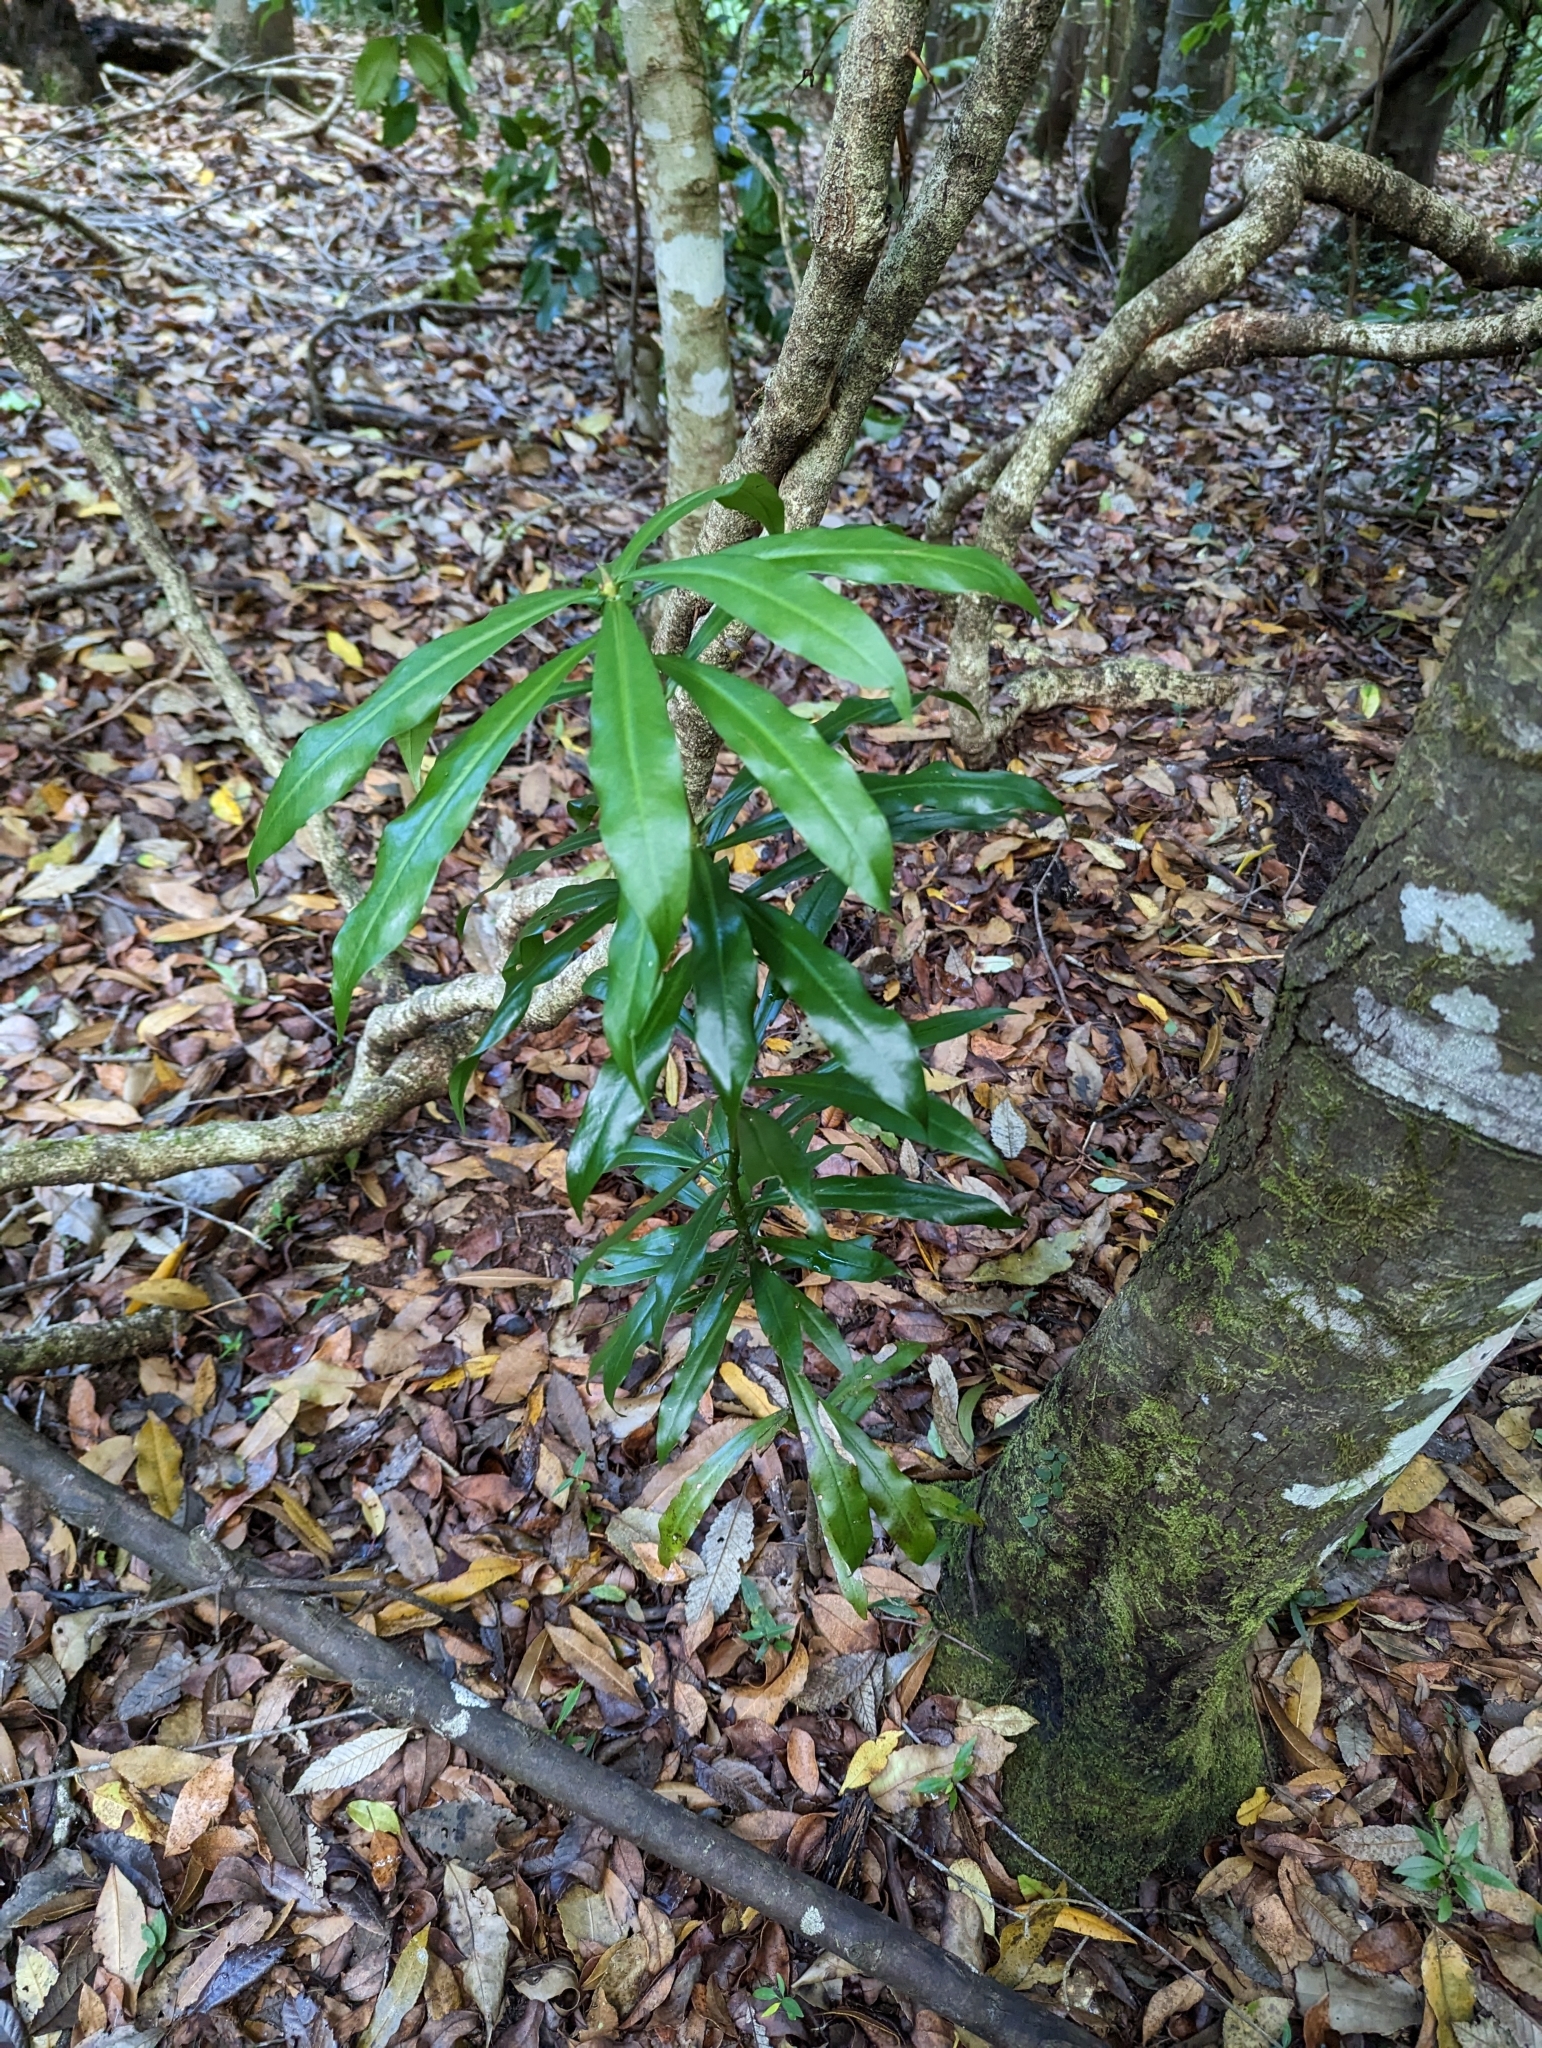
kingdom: Plantae
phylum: Tracheophyta
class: Magnoliopsida
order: Canellales
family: Winteraceae
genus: Drimys
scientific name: Drimys insipida
